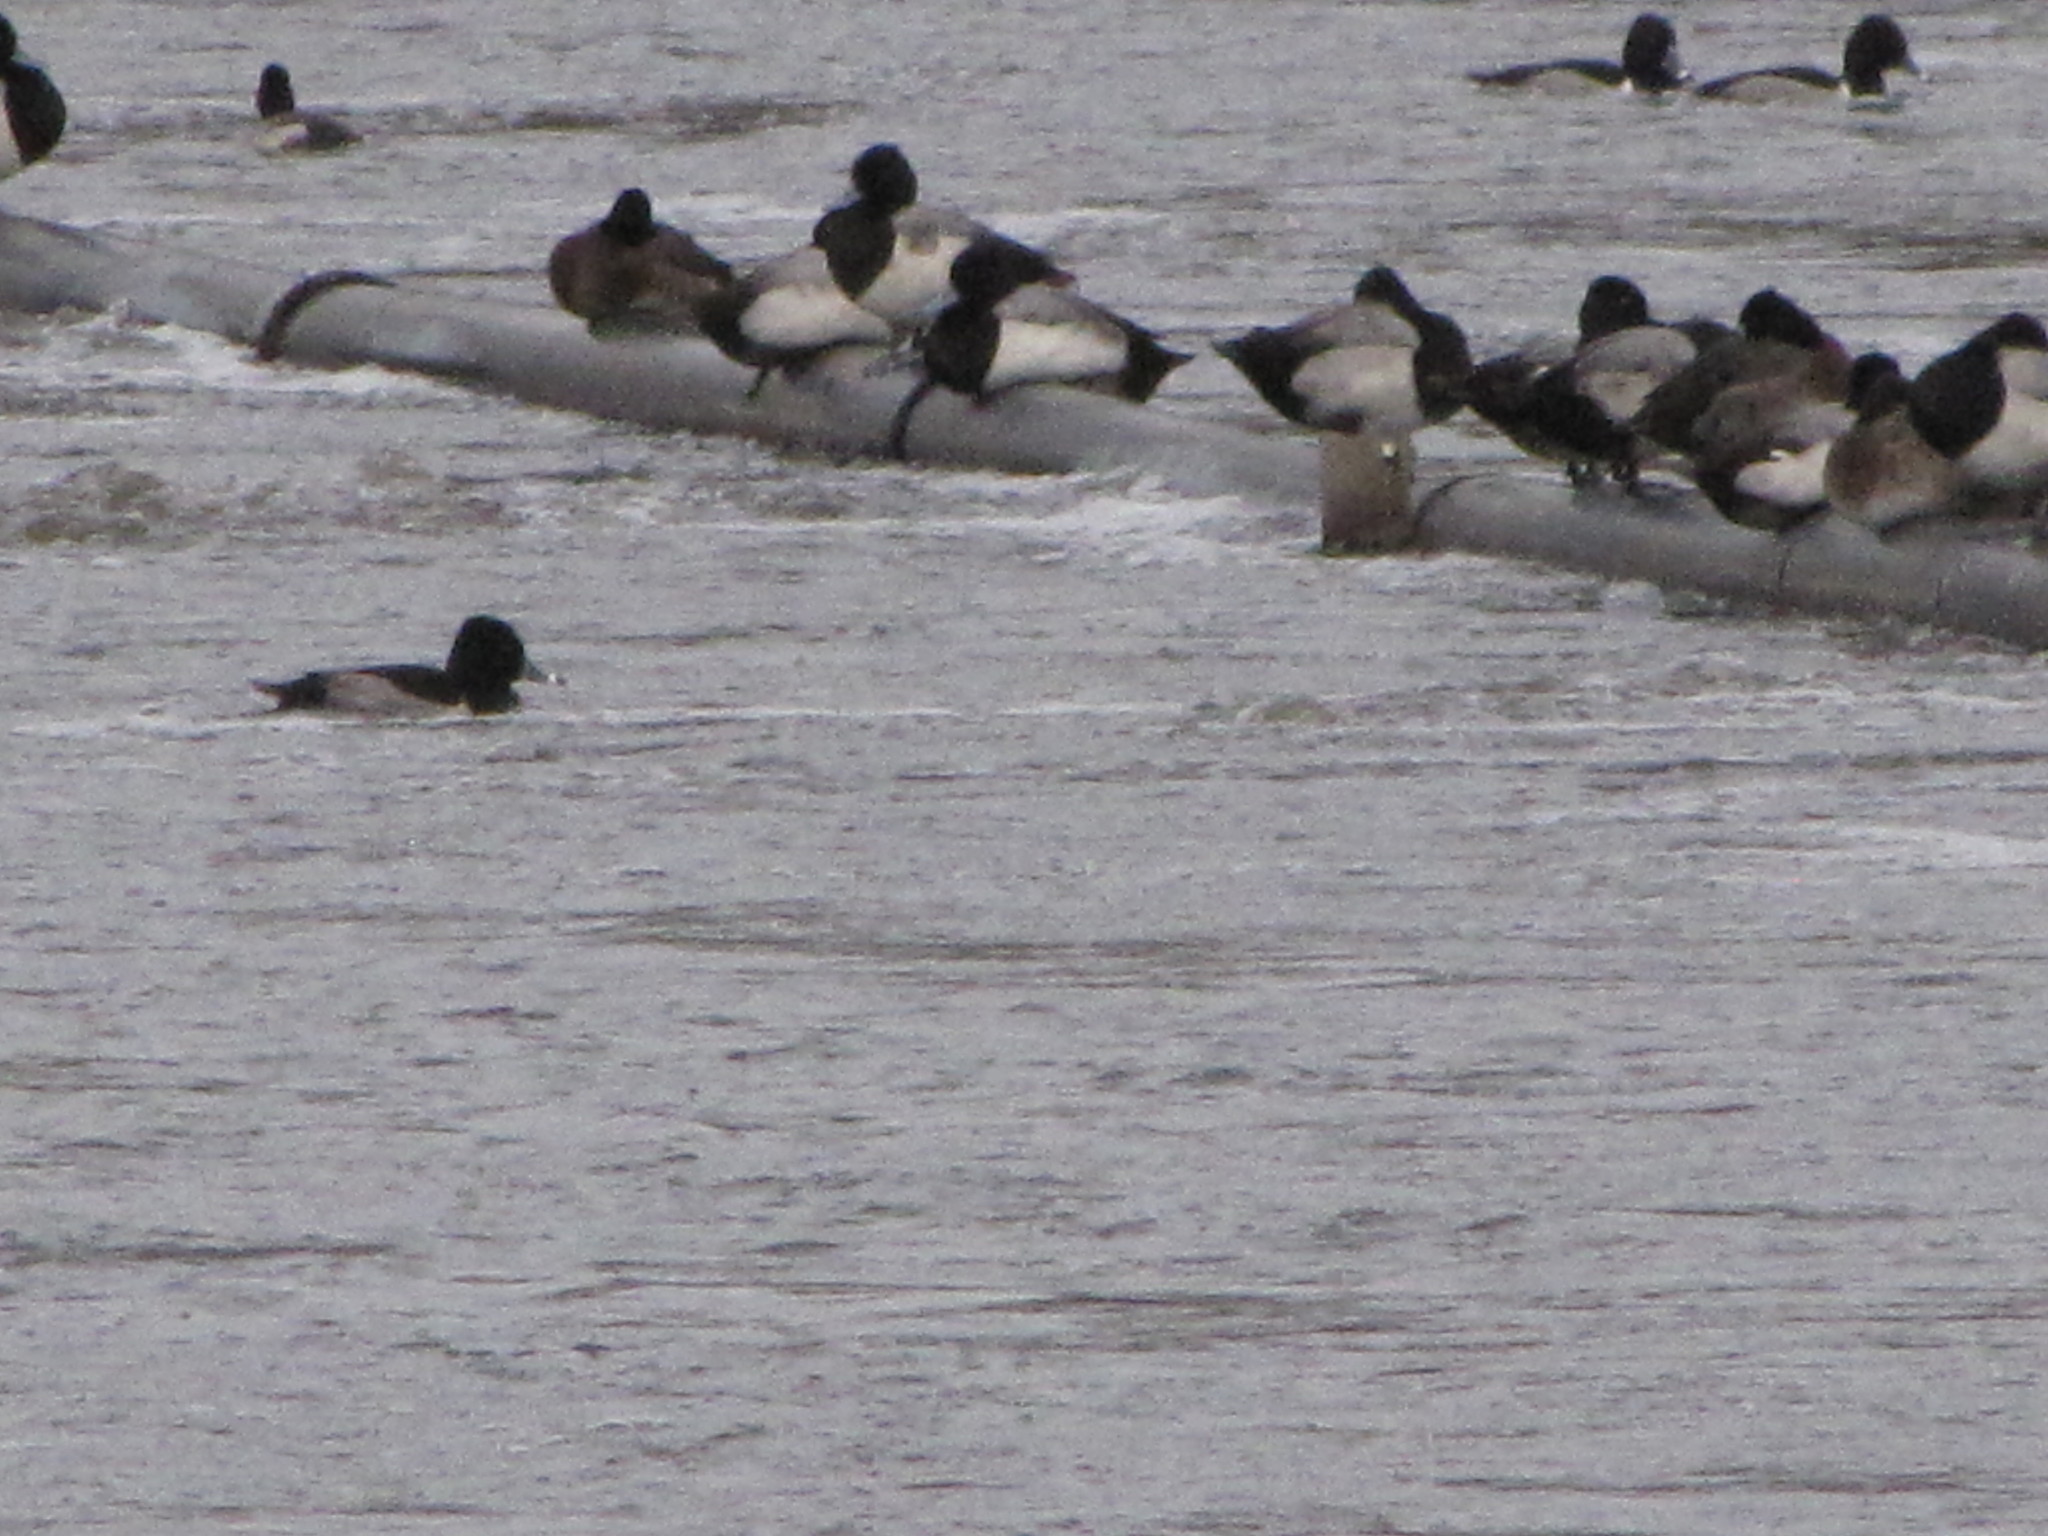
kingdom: Animalia
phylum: Chordata
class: Aves
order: Anseriformes
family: Anatidae
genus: Aythya
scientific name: Aythya affinis
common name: Lesser scaup
